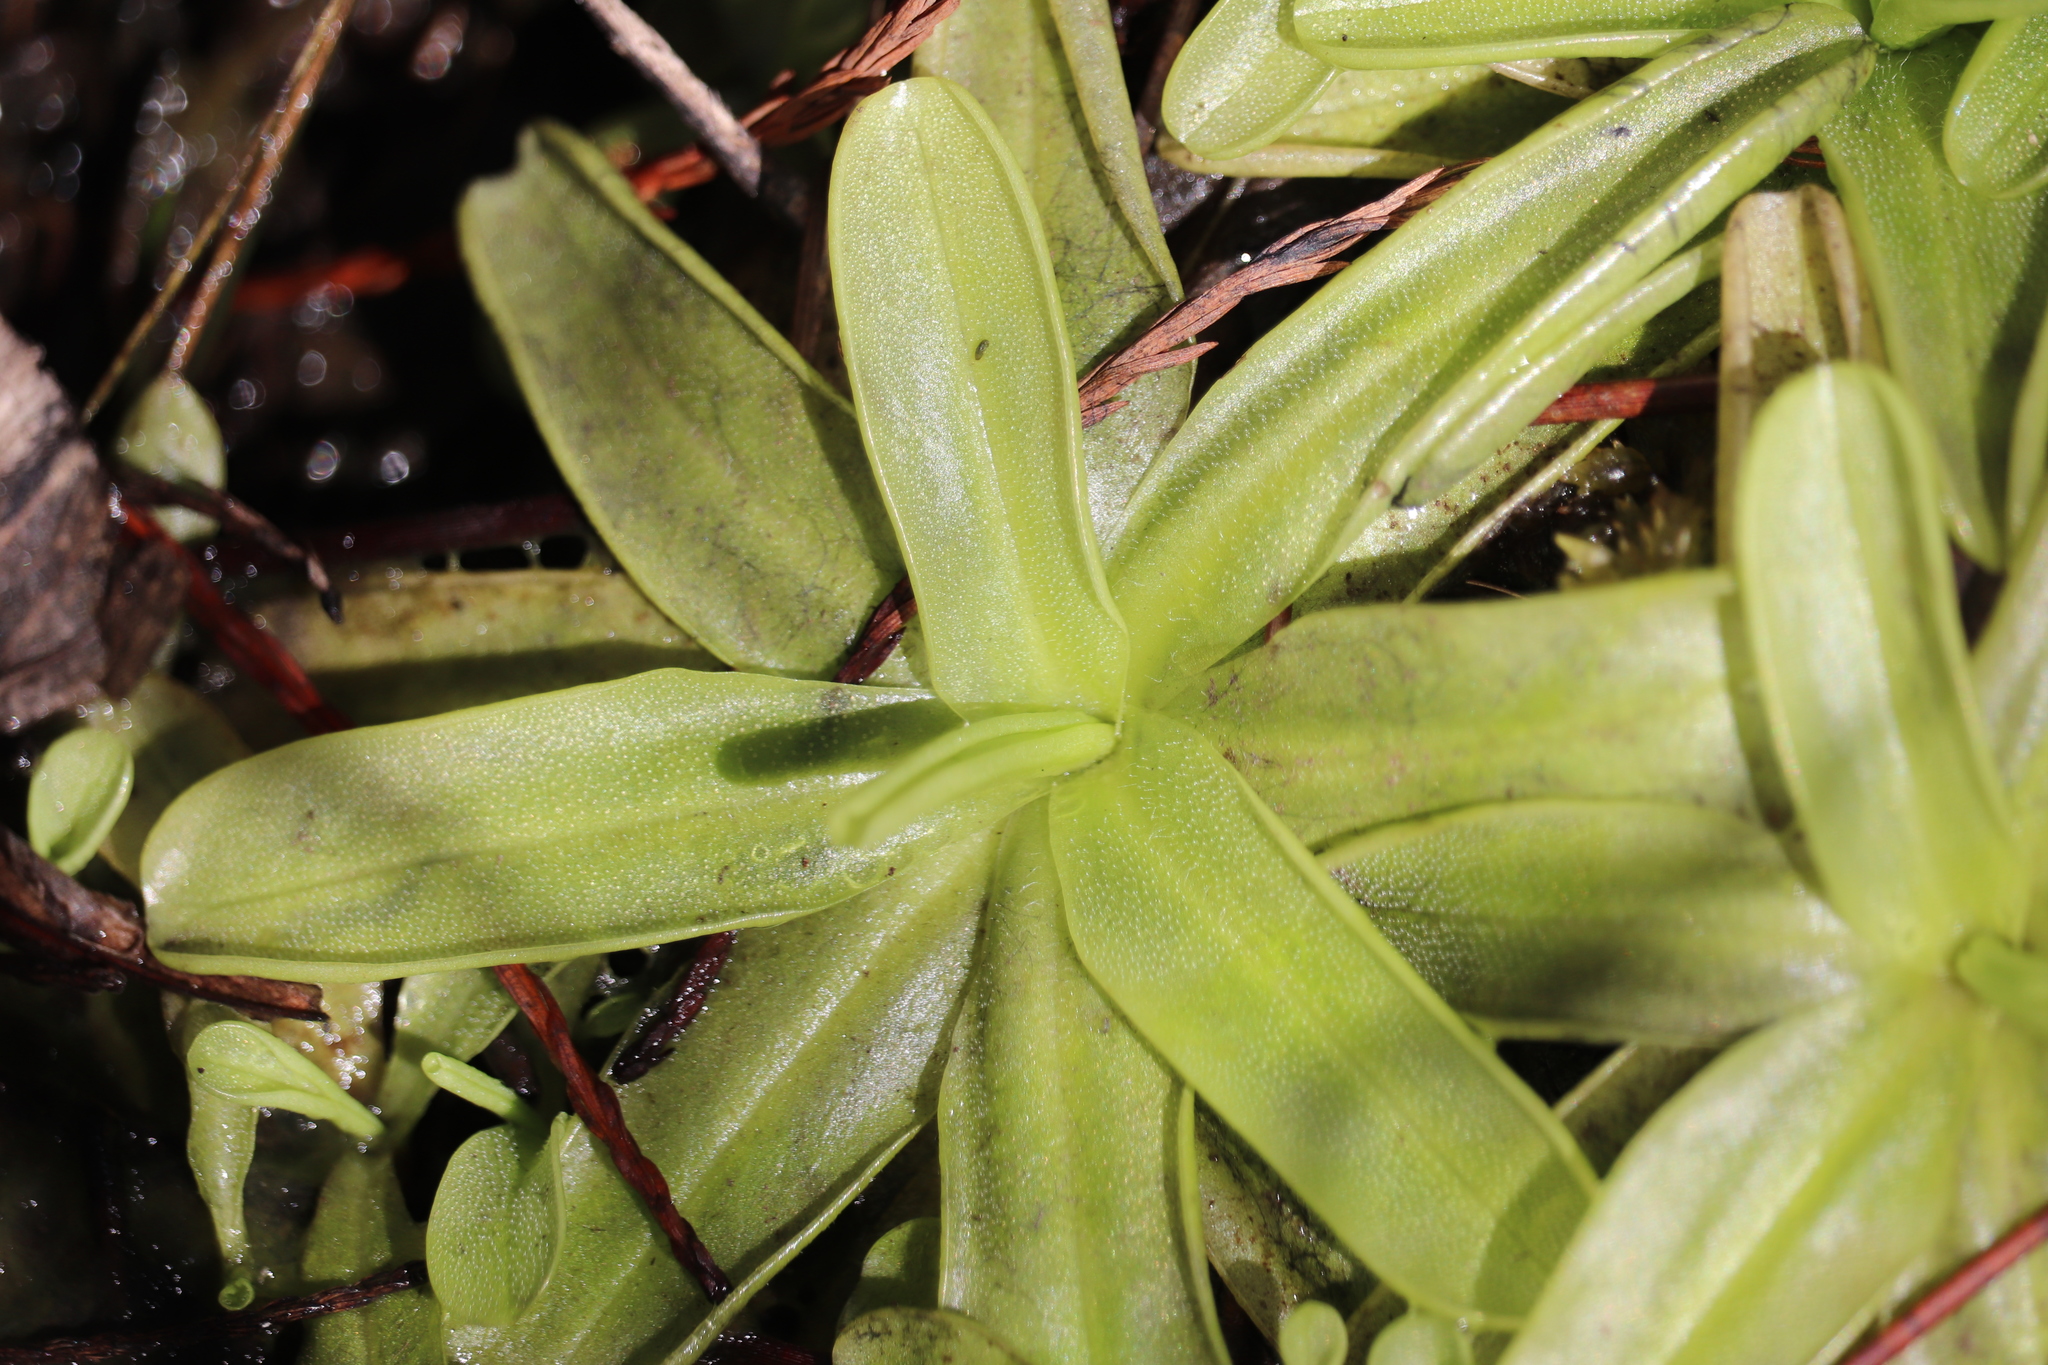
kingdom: Plantae
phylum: Tracheophyta
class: Magnoliopsida
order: Lamiales
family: Lentibulariaceae
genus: Pinguicula
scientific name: Pinguicula primuliflora
